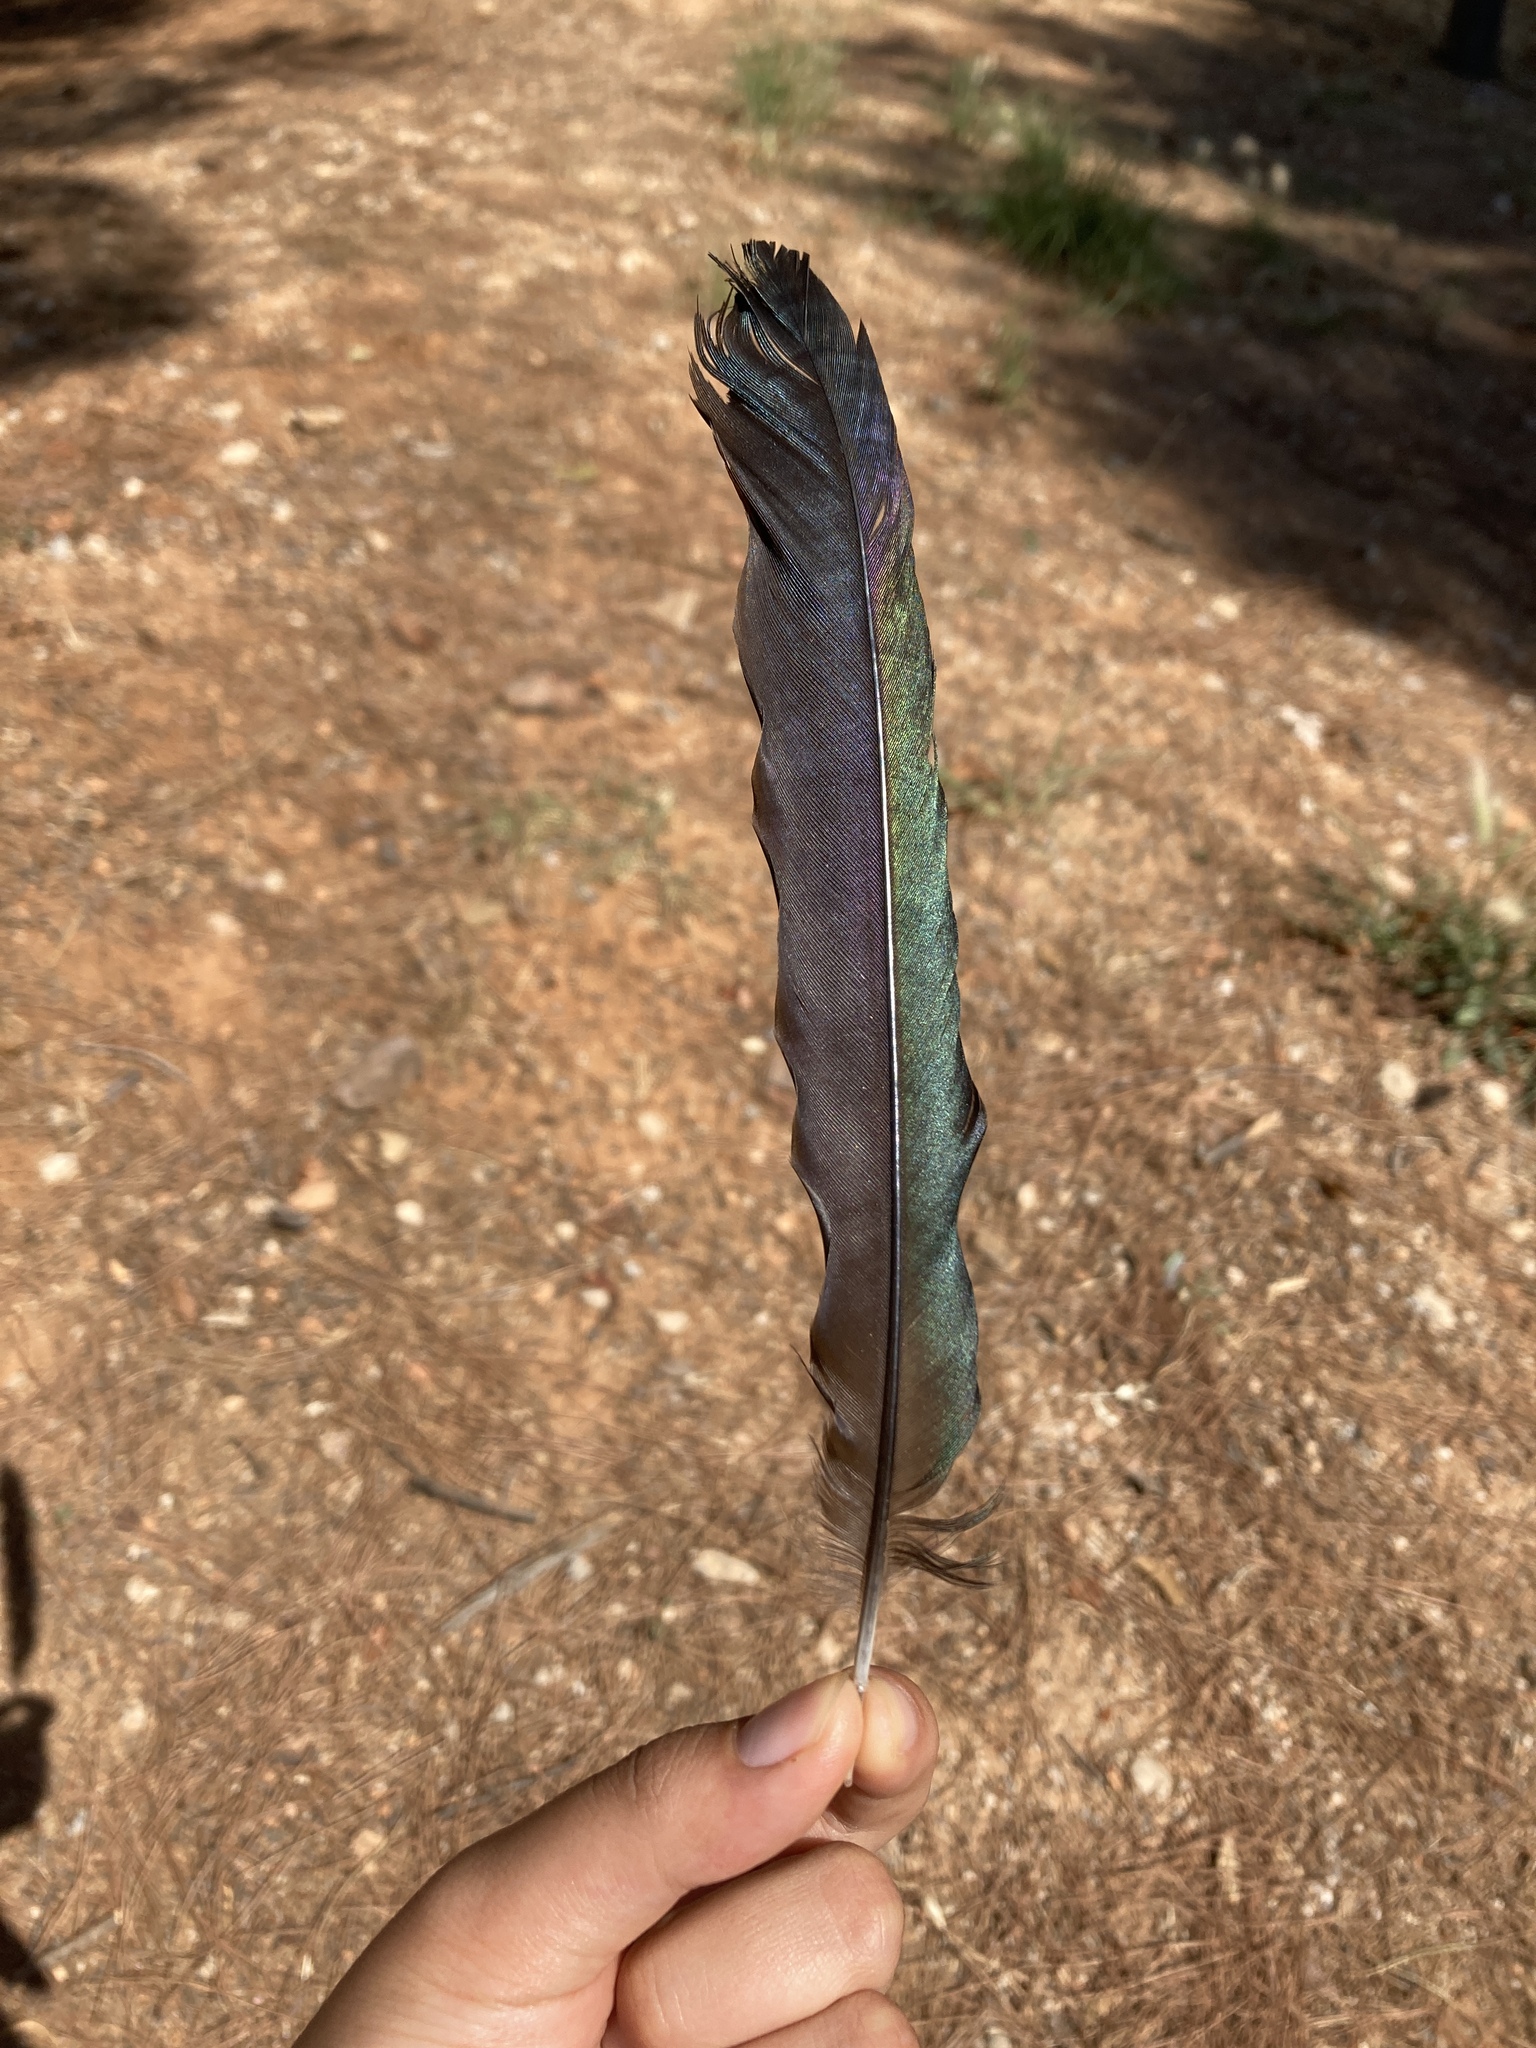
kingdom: Animalia
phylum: Chordata
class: Aves
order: Passeriformes
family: Corvidae
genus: Pica
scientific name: Pica pica
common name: Eurasian magpie
